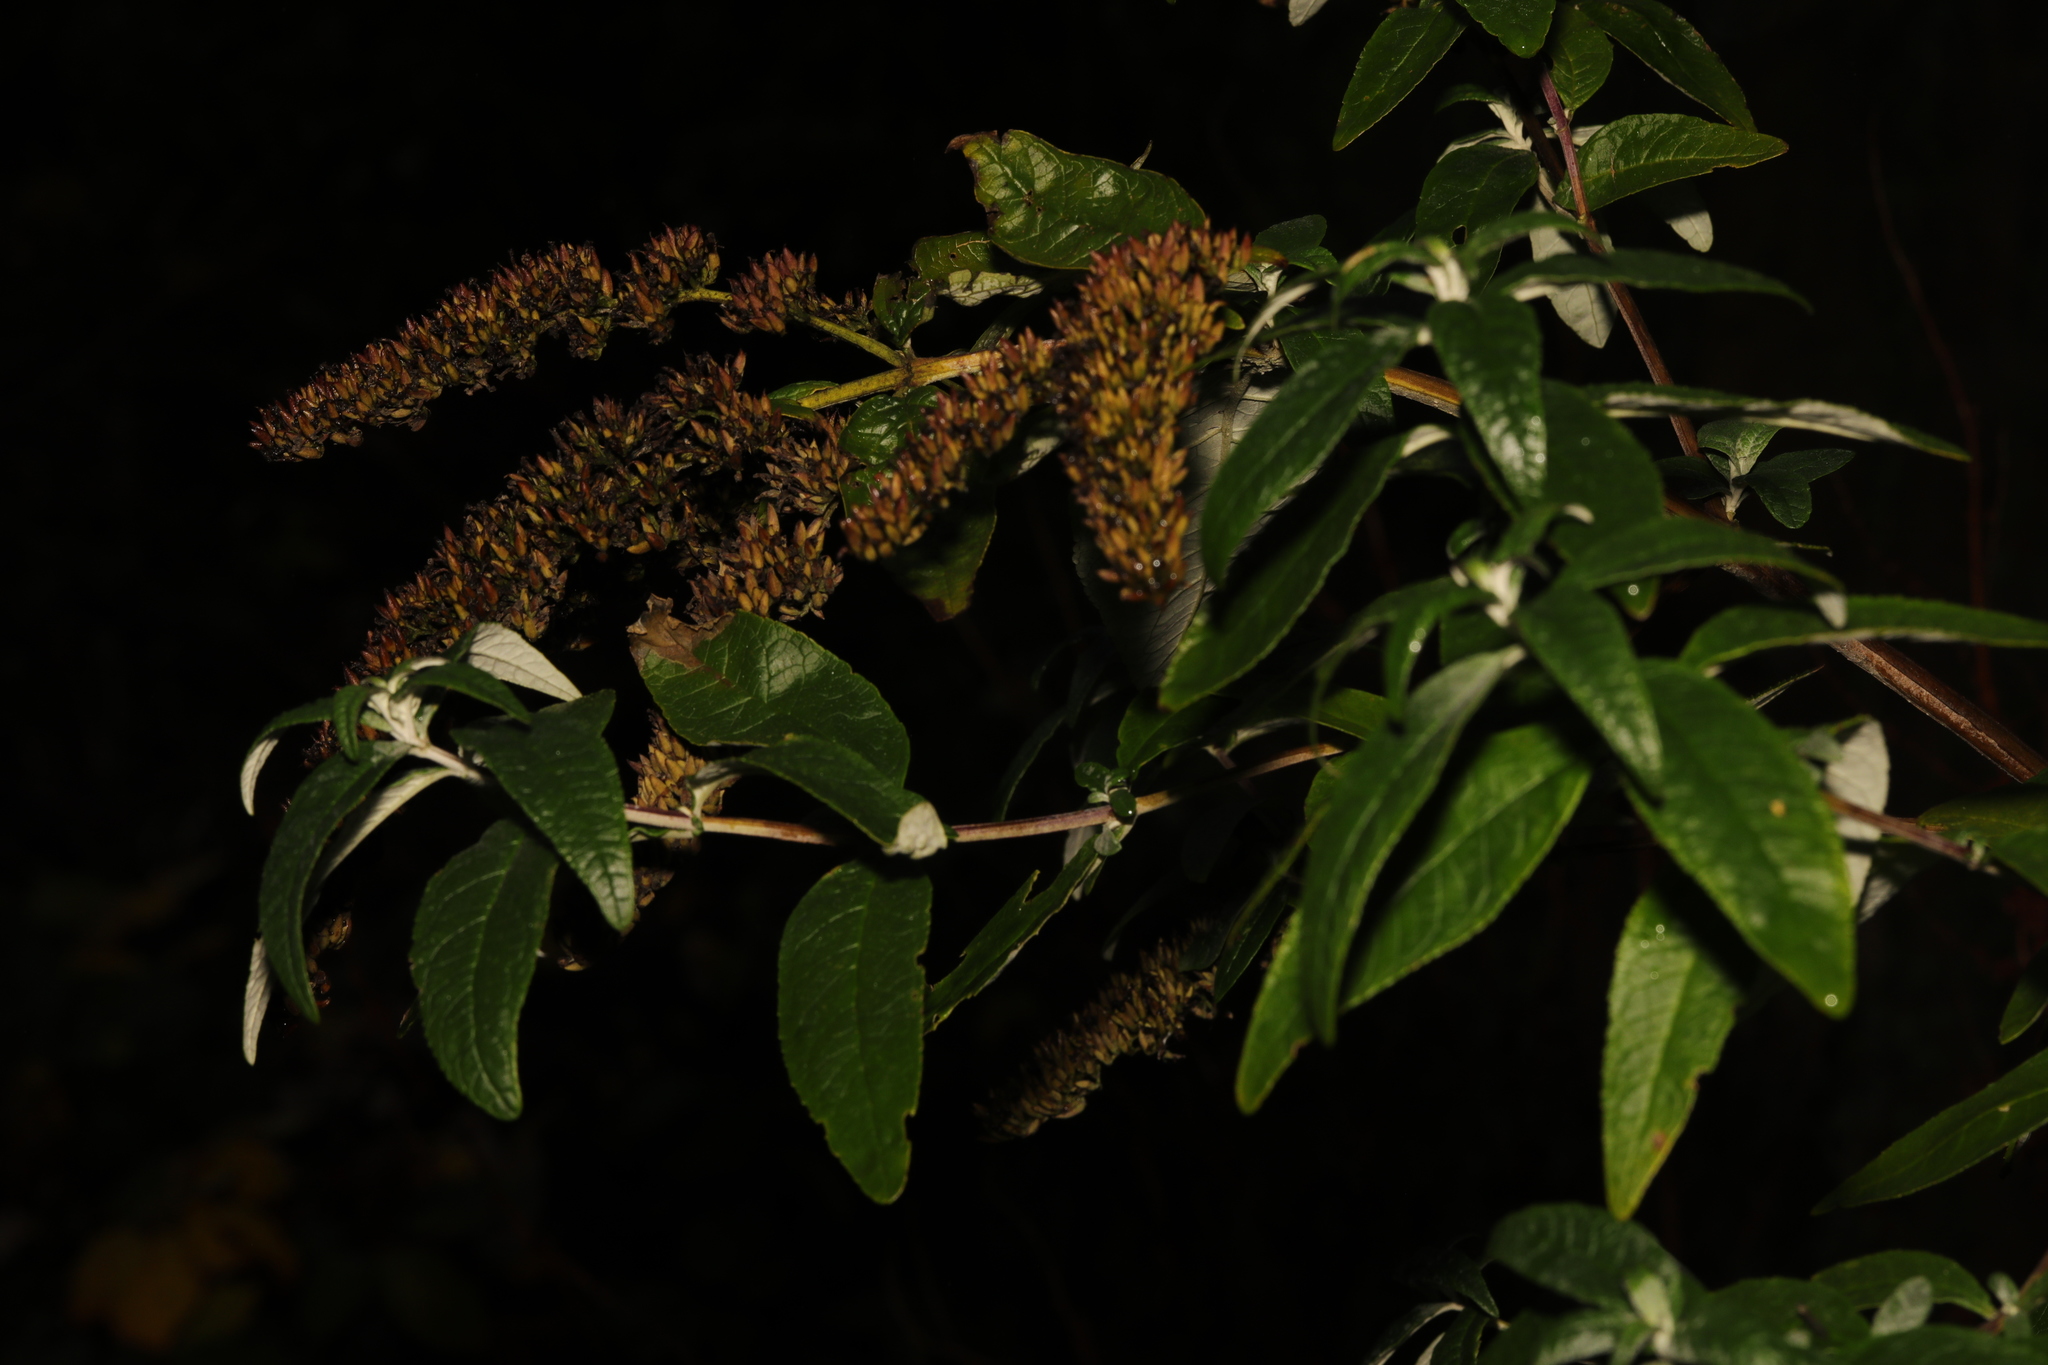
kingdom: Plantae
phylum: Tracheophyta
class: Magnoliopsida
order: Lamiales
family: Scrophulariaceae
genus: Buddleja
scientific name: Buddleja davidii
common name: Butterfly-bush
